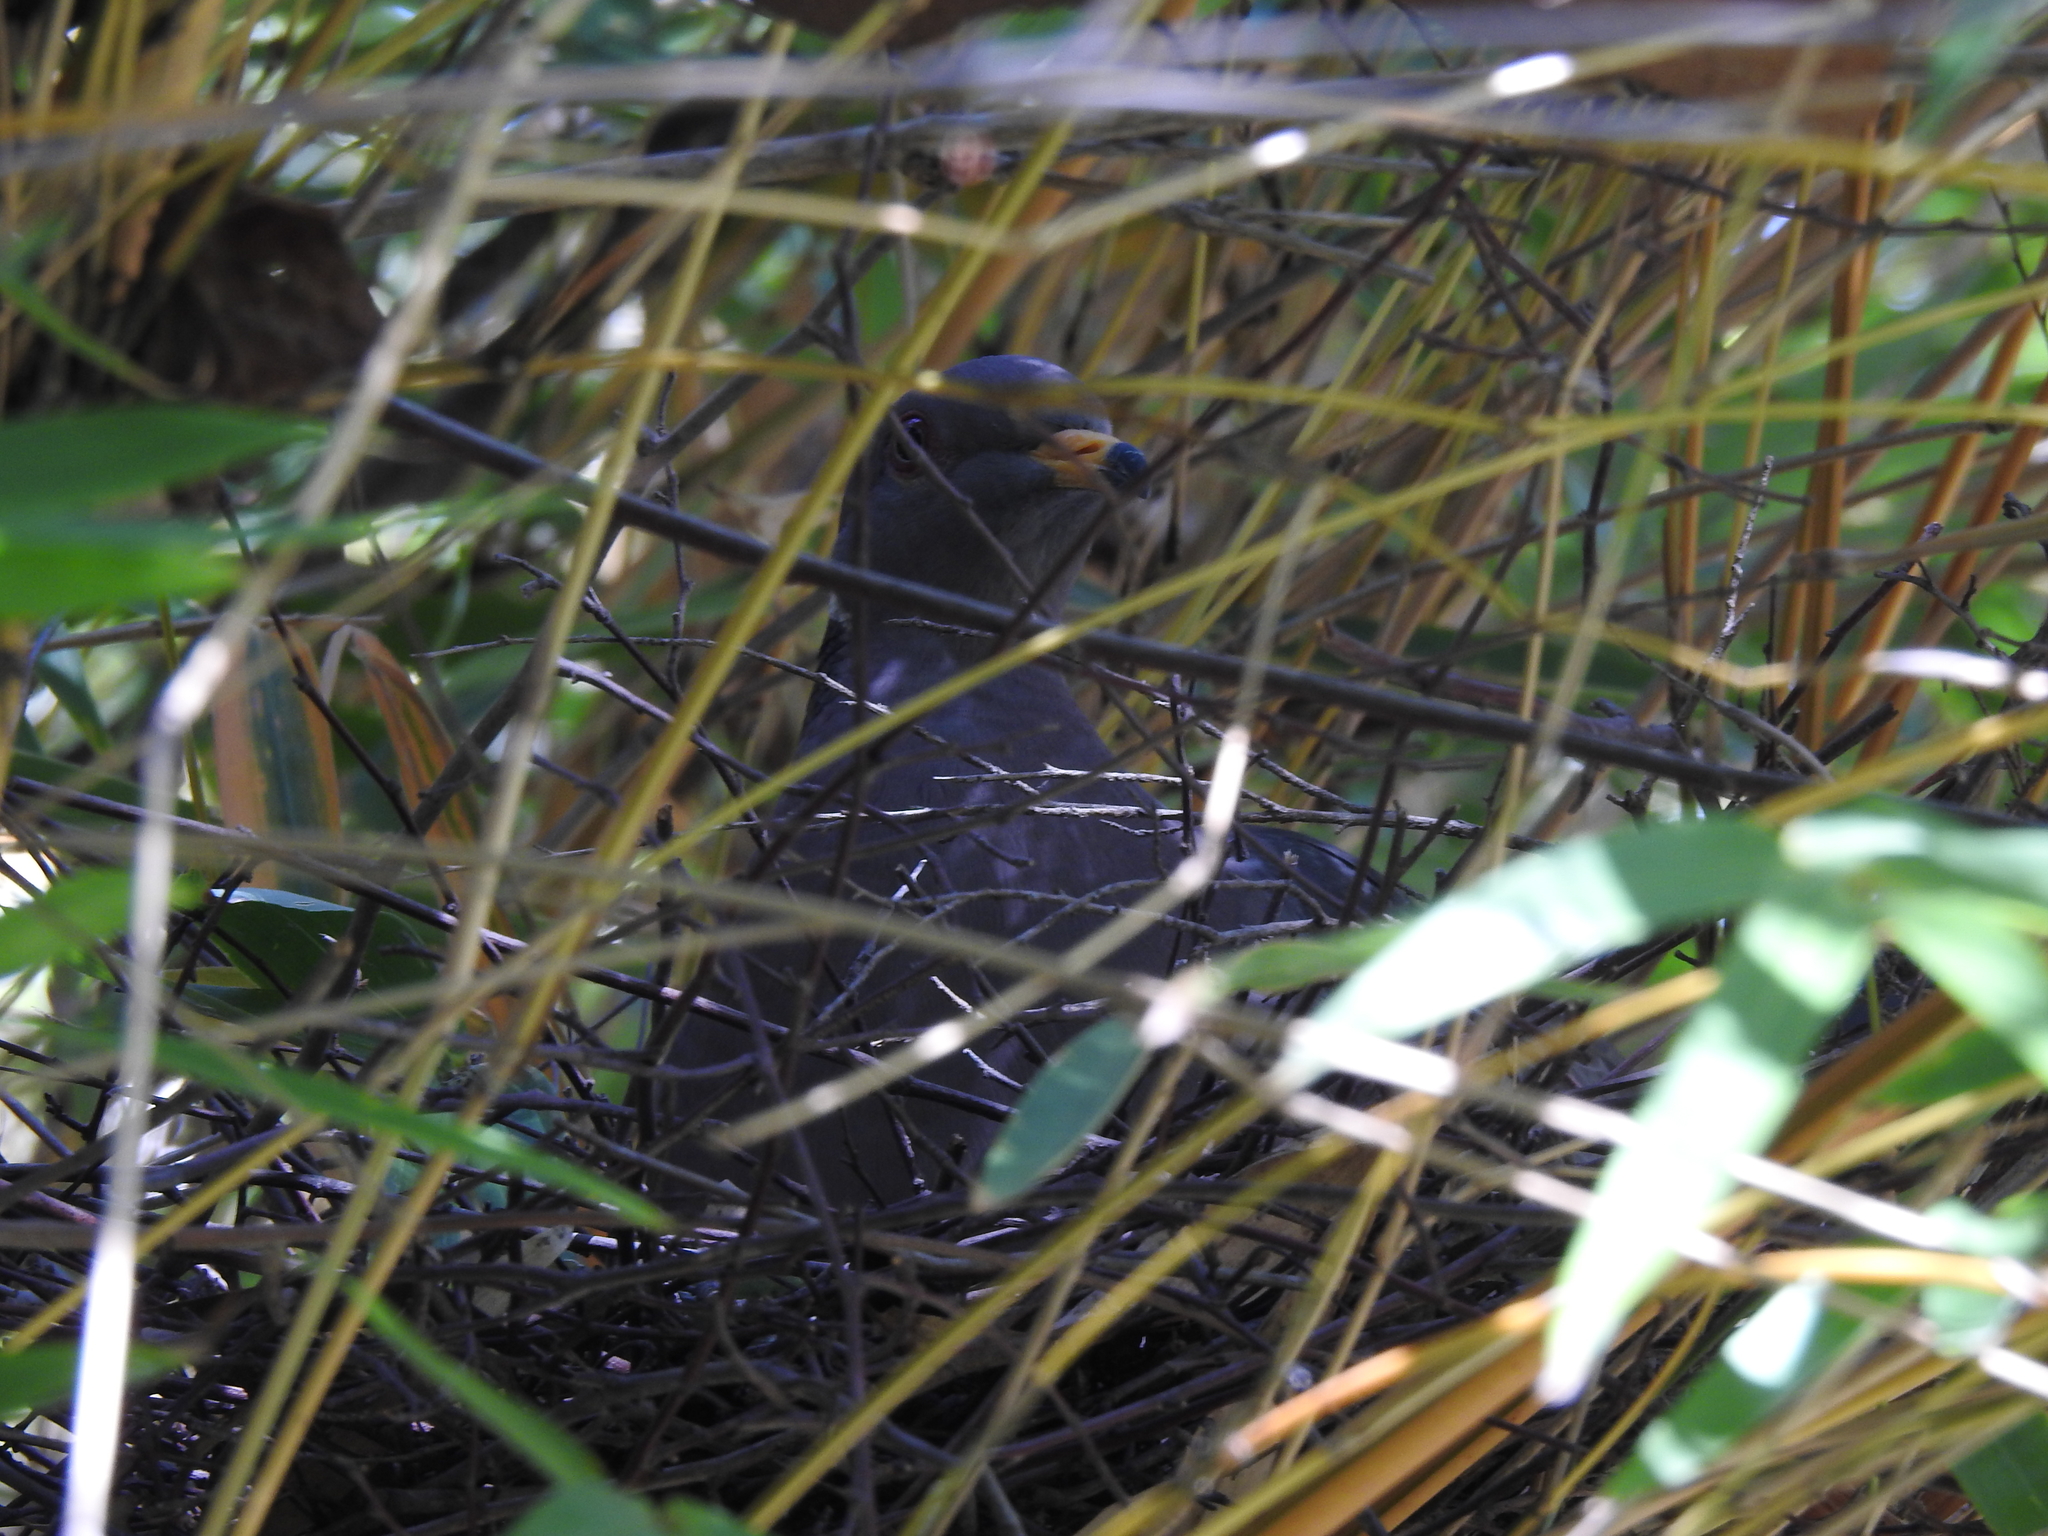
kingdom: Animalia
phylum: Chordata
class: Aves
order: Columbiformes
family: Columbidae
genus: Patagioenas
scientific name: Patagioenas fasciata
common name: Band-tailed pigeon
